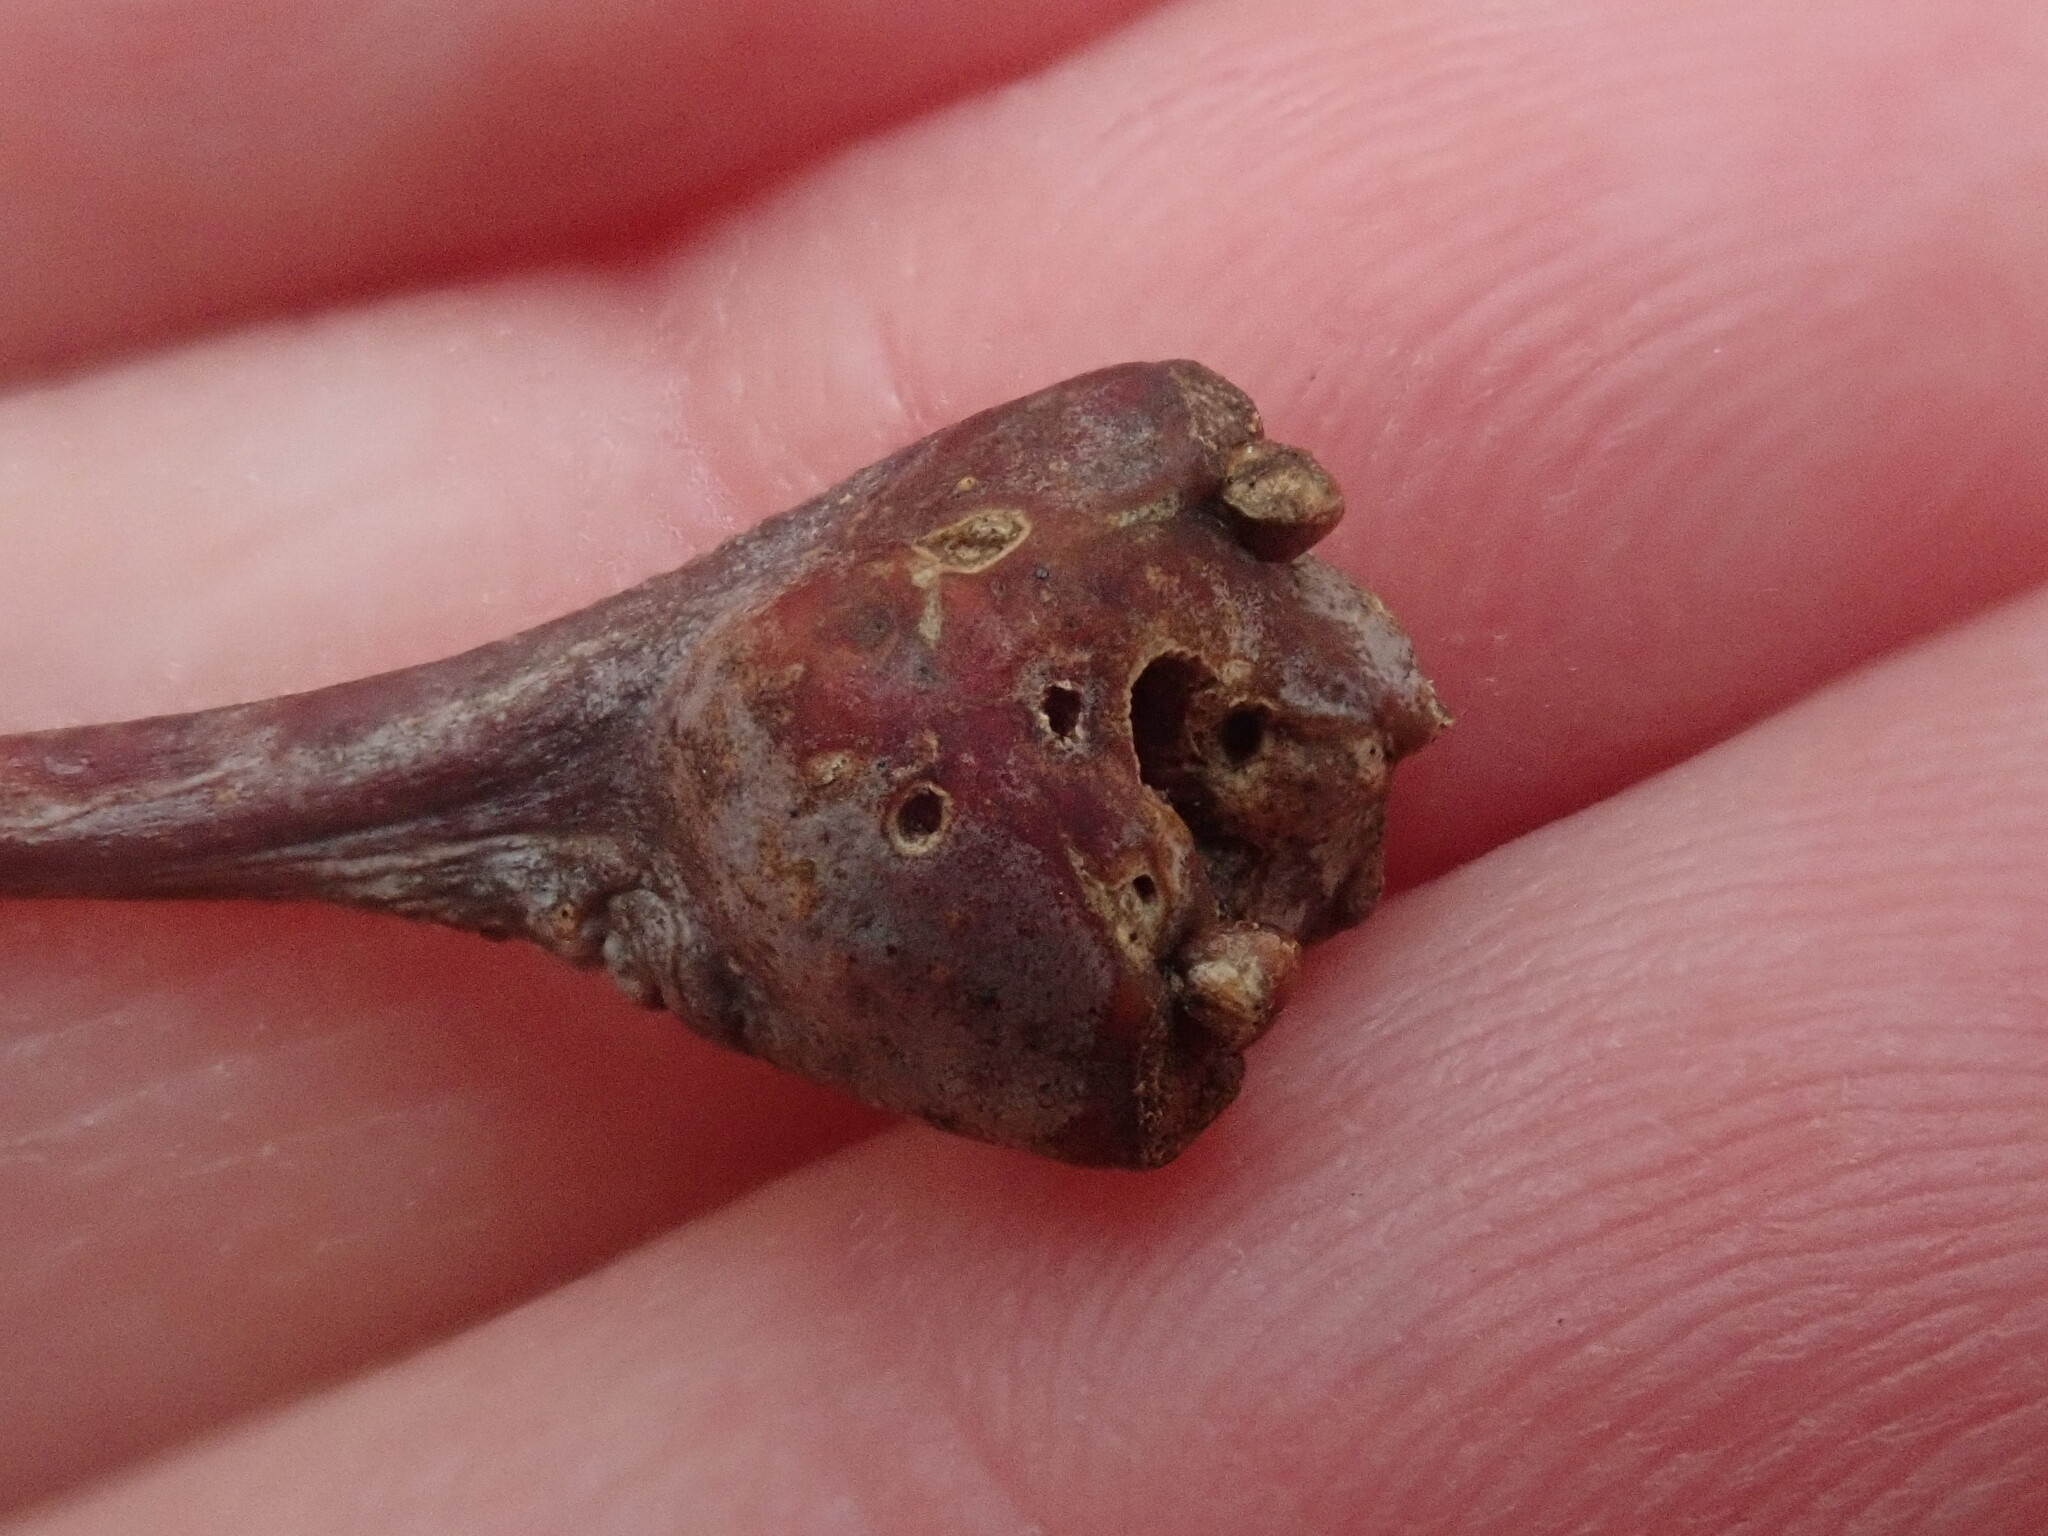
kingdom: Animalia
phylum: Arthropoda
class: Insecta
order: Hymenoptera
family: Cynipidae
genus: Callirhytis
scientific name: Callirhytis clavula
